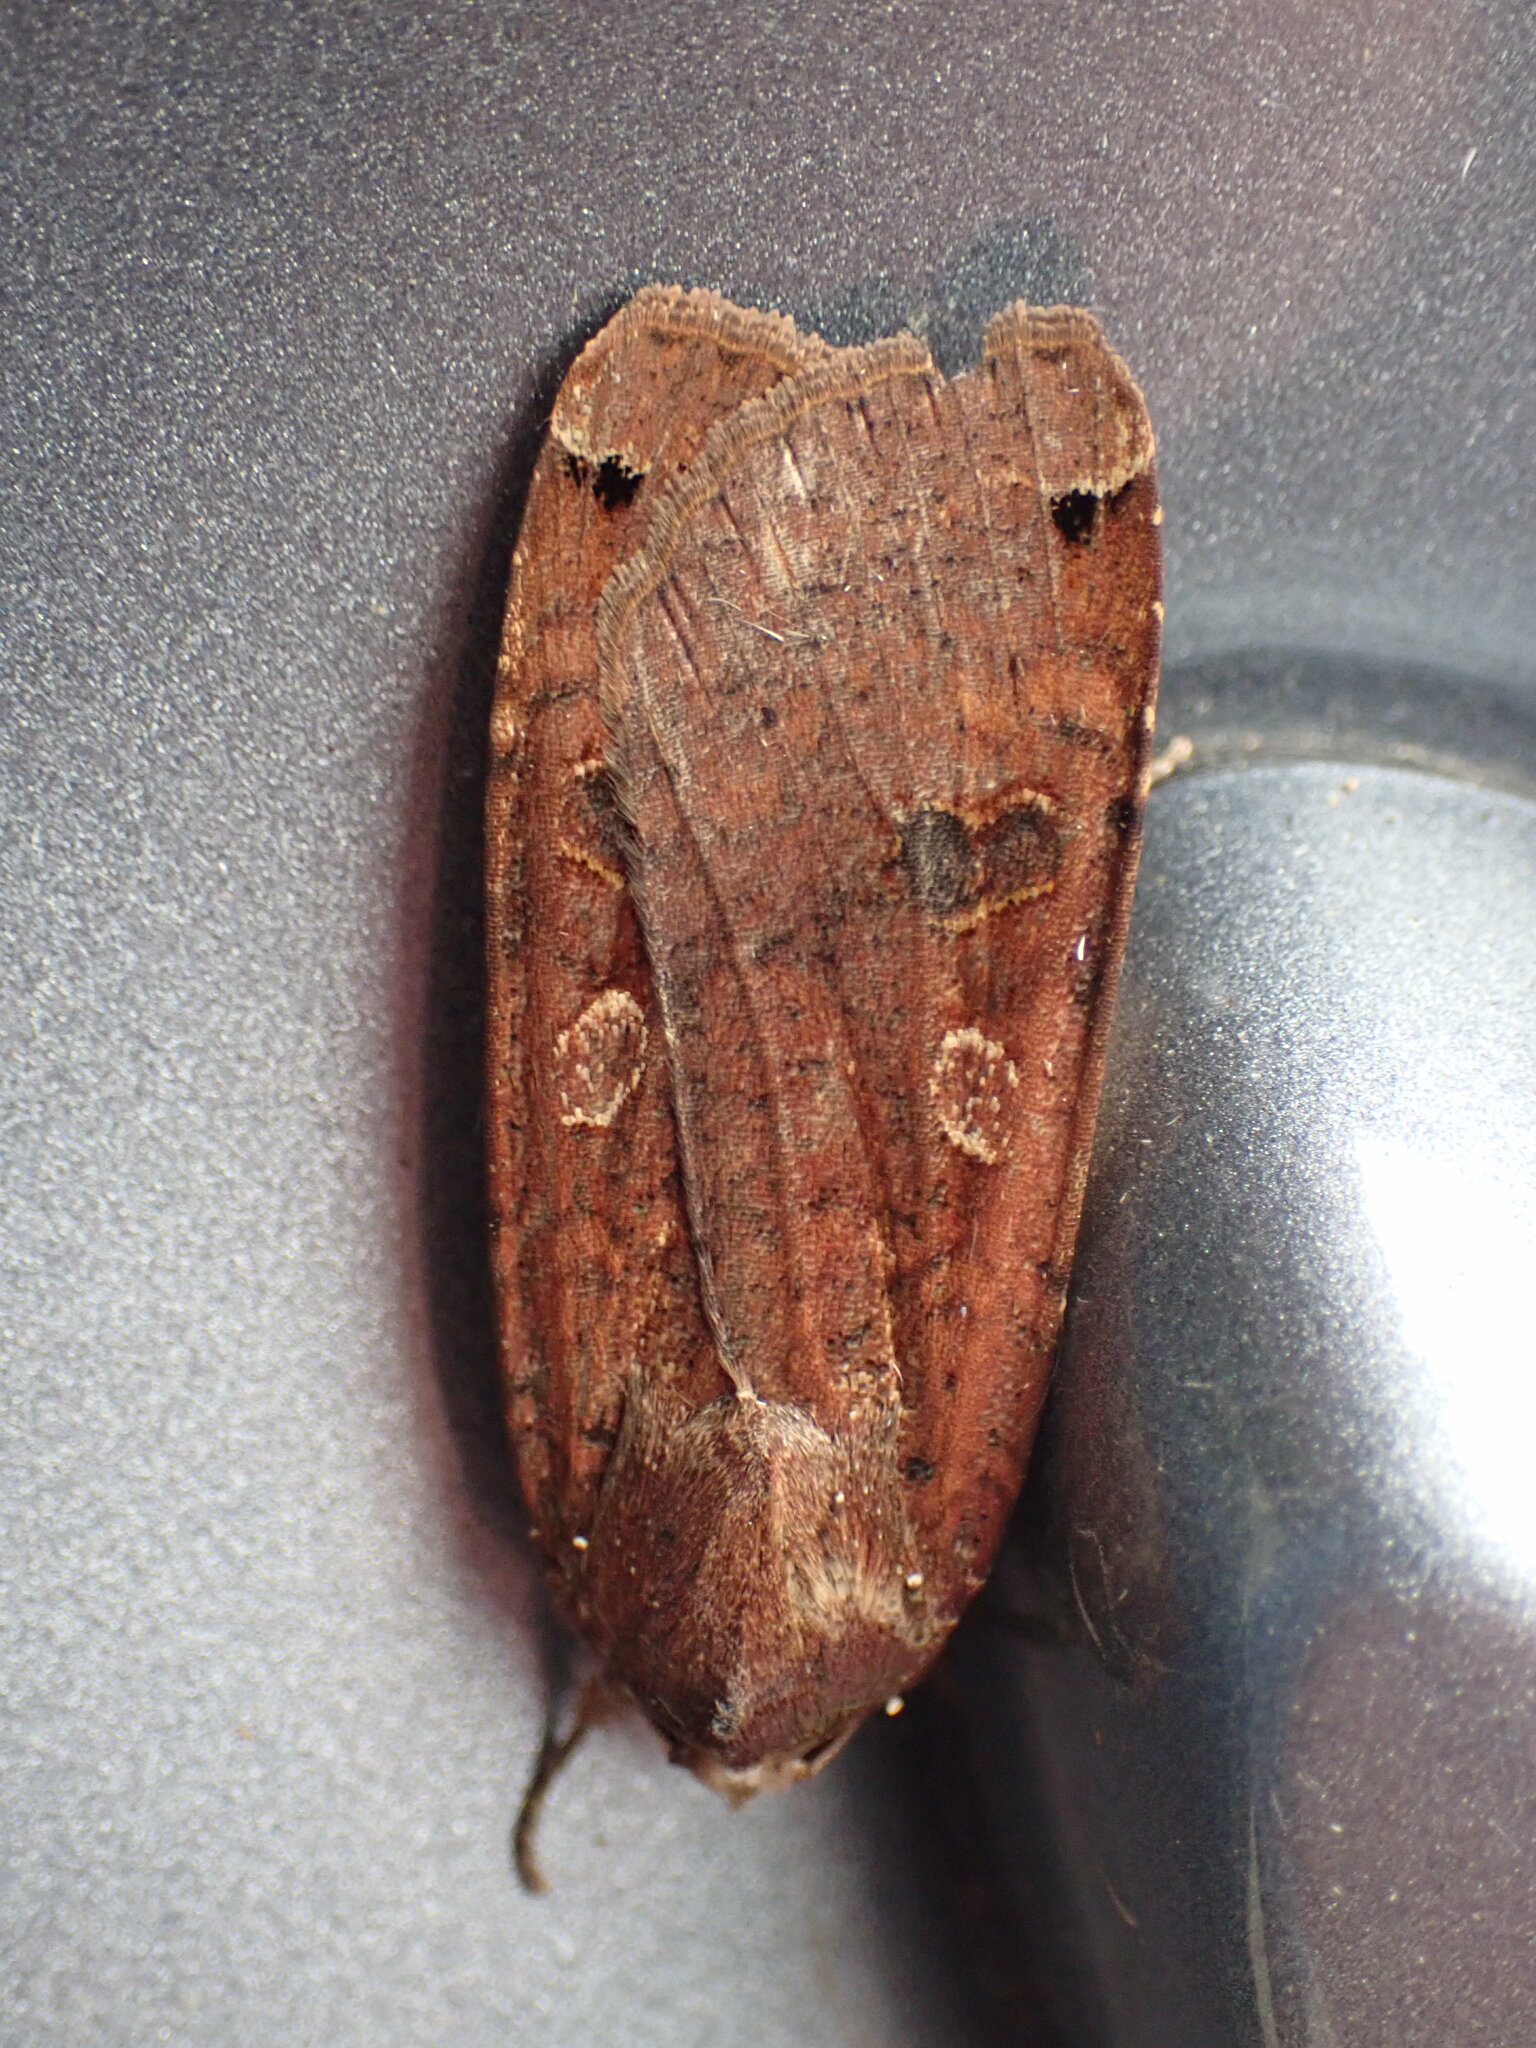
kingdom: Animalia
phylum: Arthropoda
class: Insecta
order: Lepidoptera
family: Noctuidae
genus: Noctua
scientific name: Noctua pronuba
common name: Large yellow underwing
